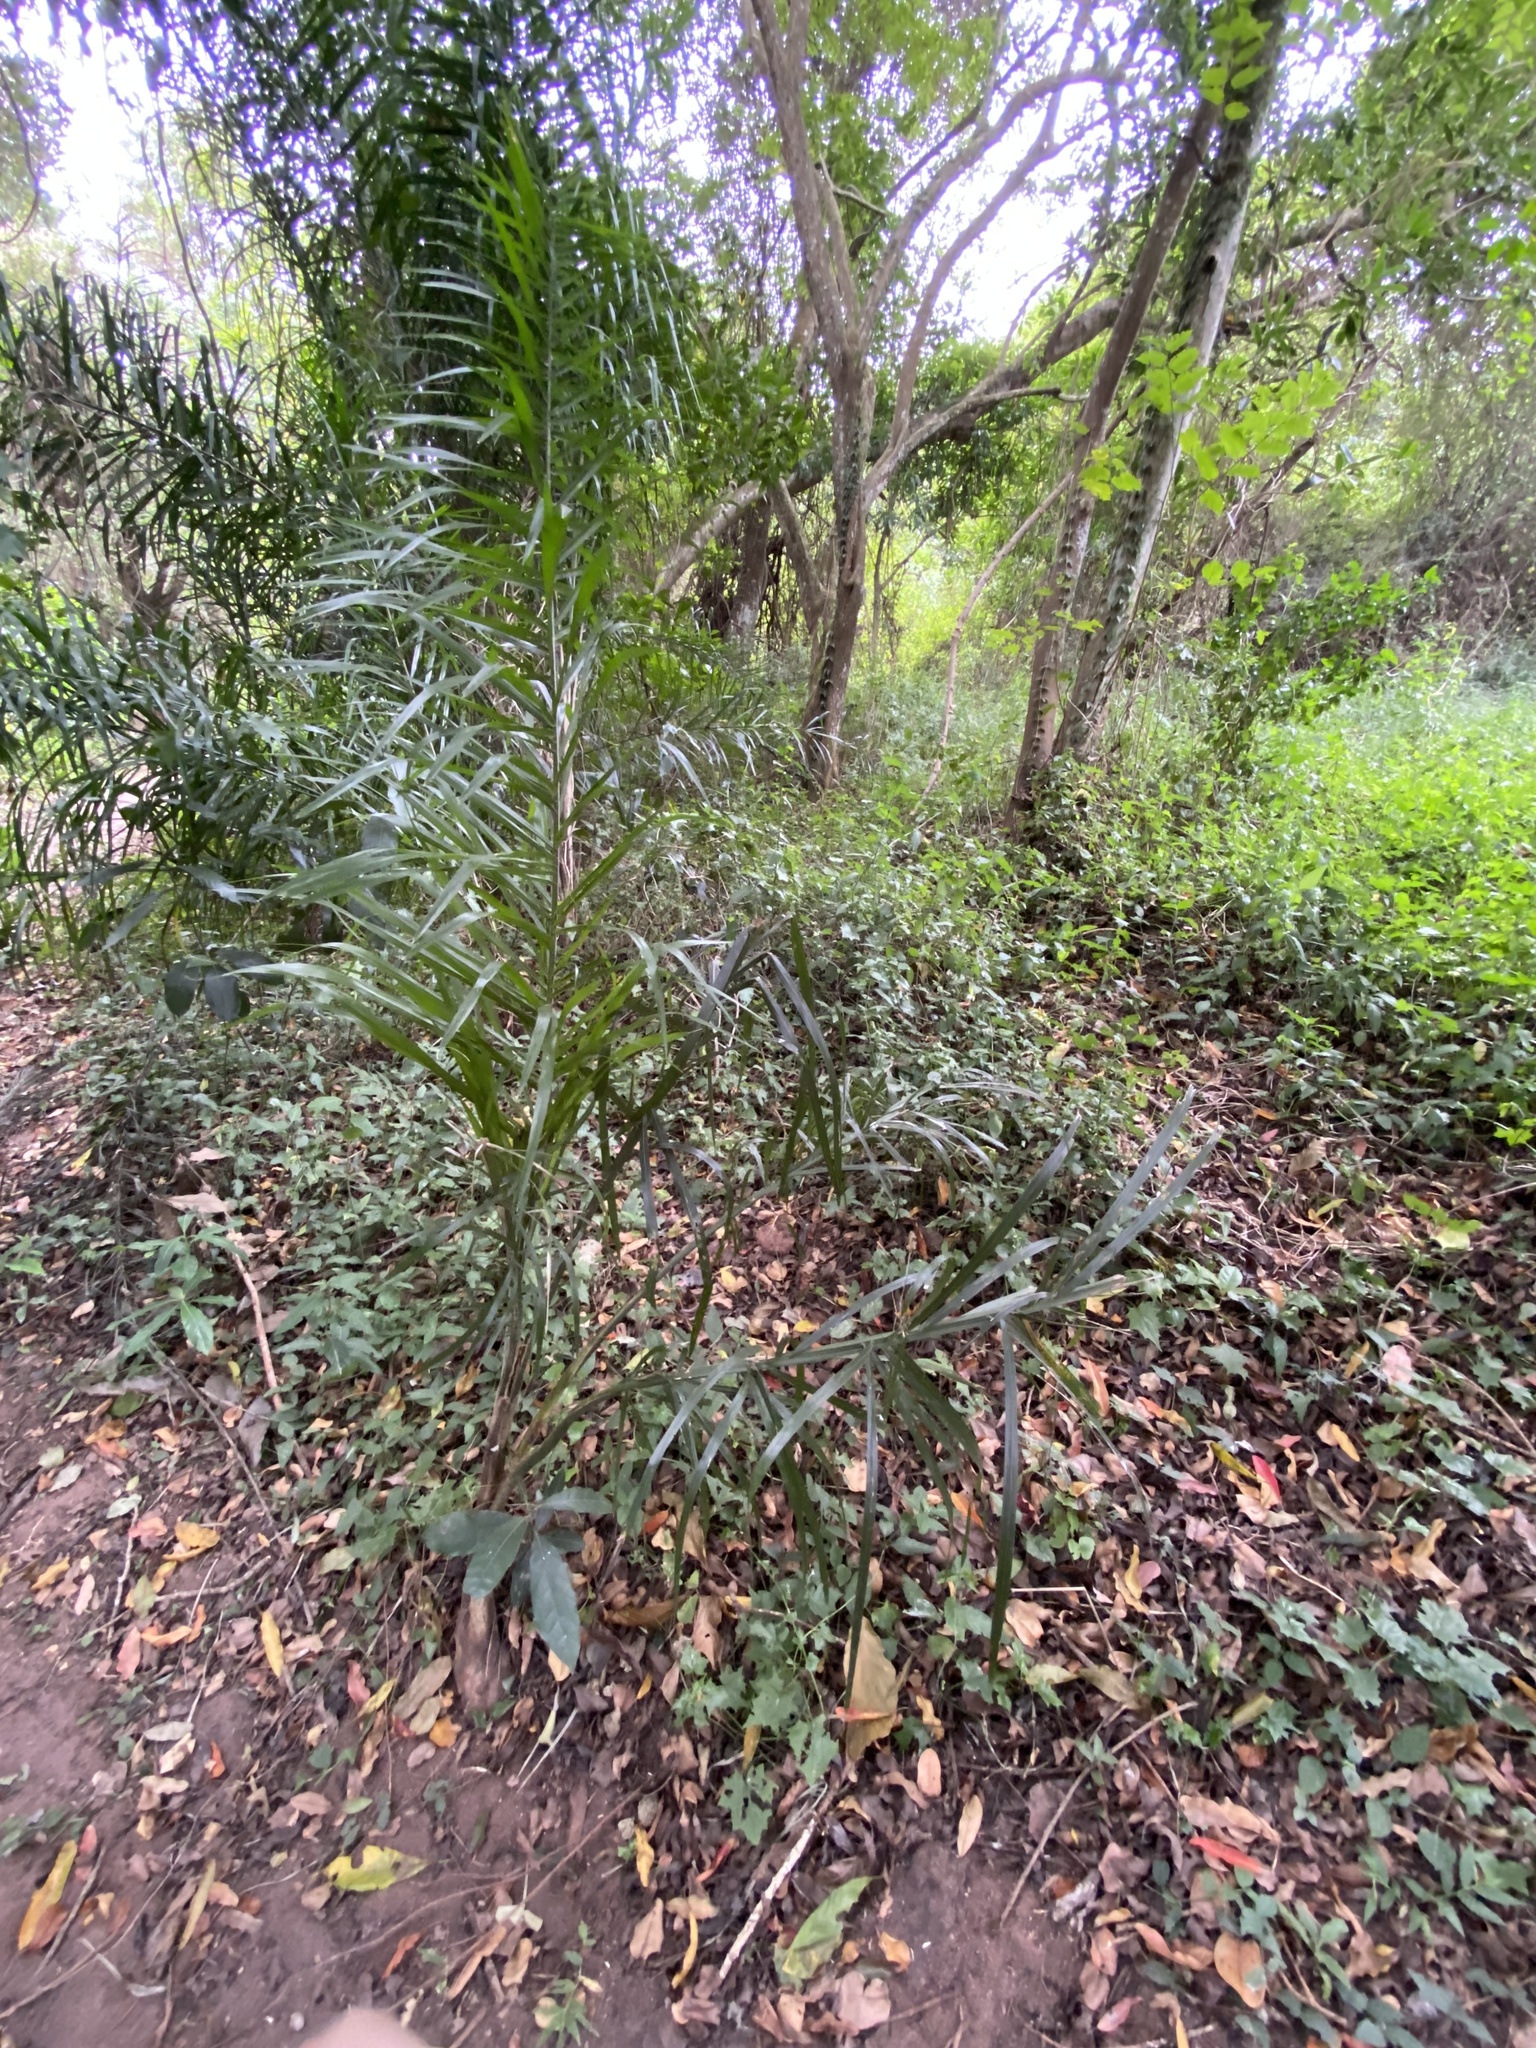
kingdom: Plantae
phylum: Tracheophyta
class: Liliopsida
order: Arecales
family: Arecaceae
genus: Phoenix
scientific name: Phoenix reclinata
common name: Senegal date palm
